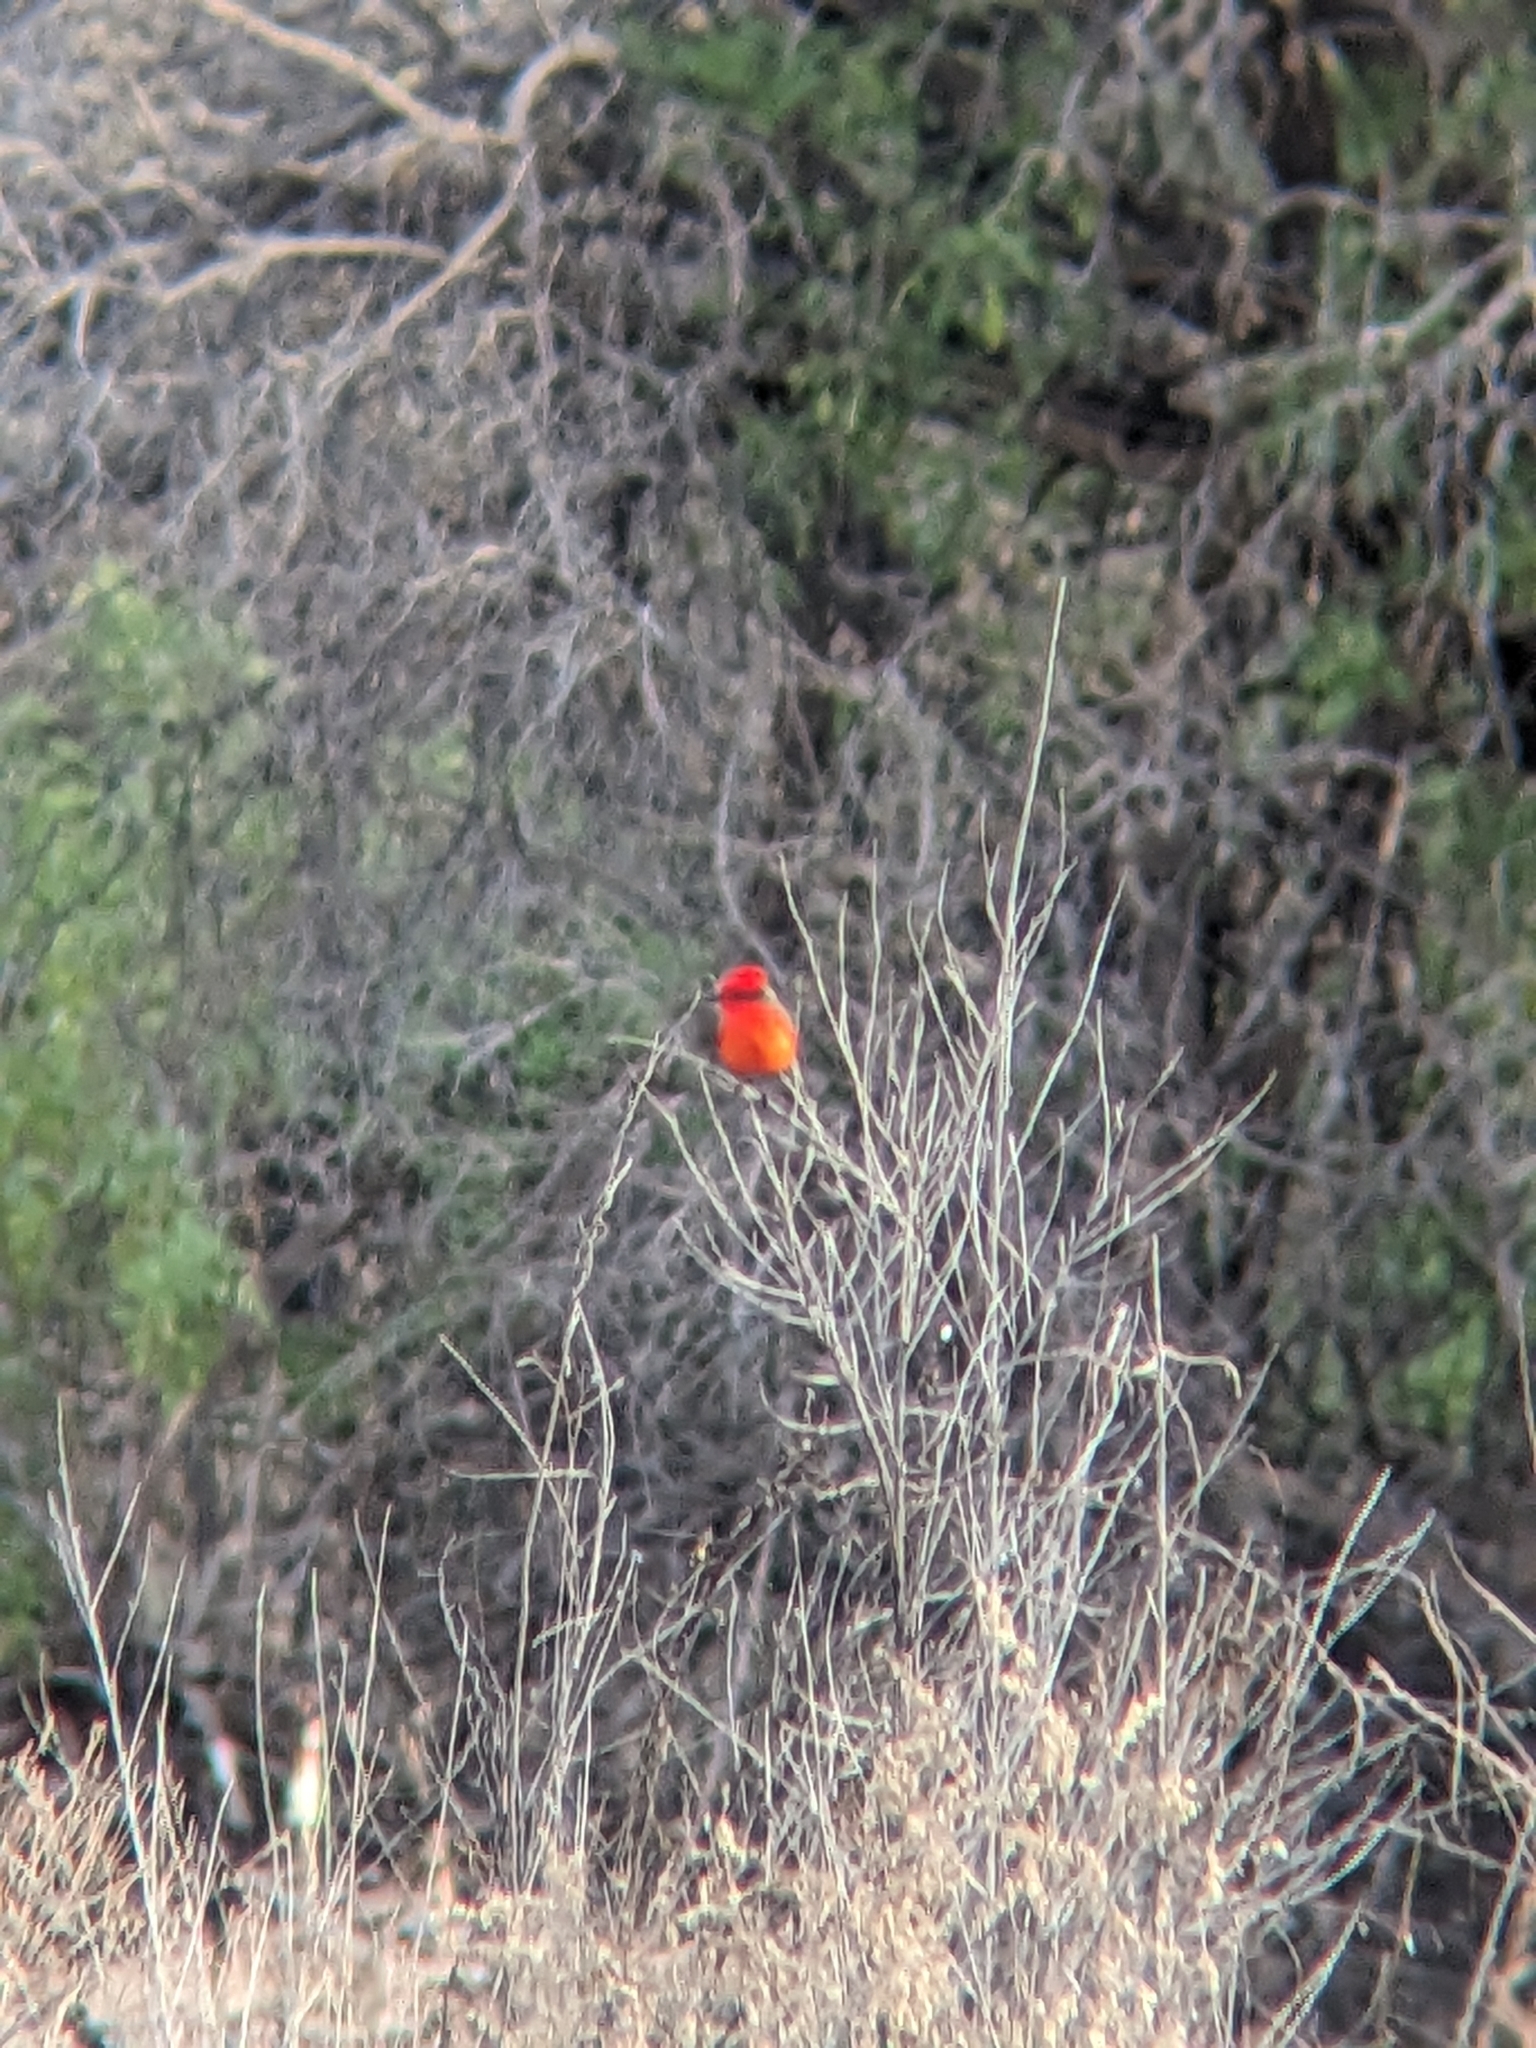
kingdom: Animalia
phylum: Chordata
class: Aves
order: Passeriformes
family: Tyrannidae
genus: Pyrocephalus
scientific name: Pyrocephalus rubinus
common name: Vermilion flycatcher
